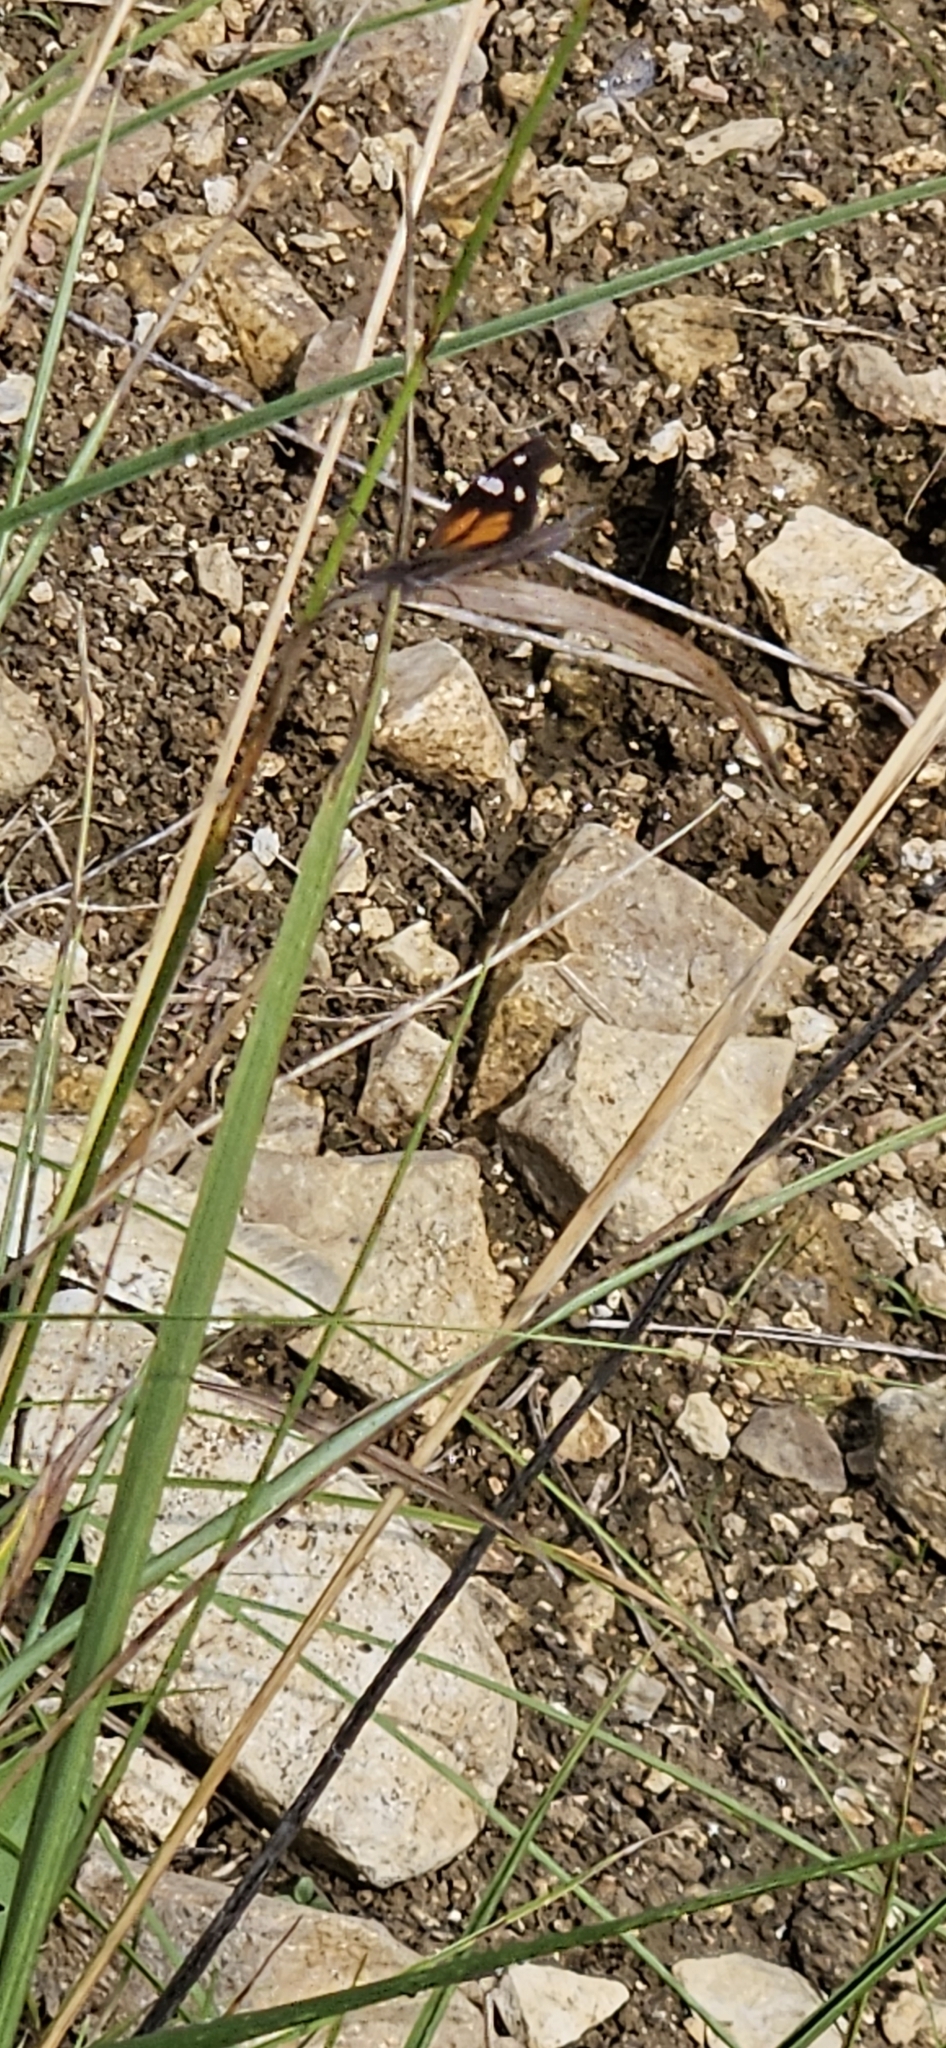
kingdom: Animalia
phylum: Arthropoda
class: Insecta
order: Lepidoptera
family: Nymphalidae
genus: Libytheana
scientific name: Libytheana carinenta
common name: American snout
